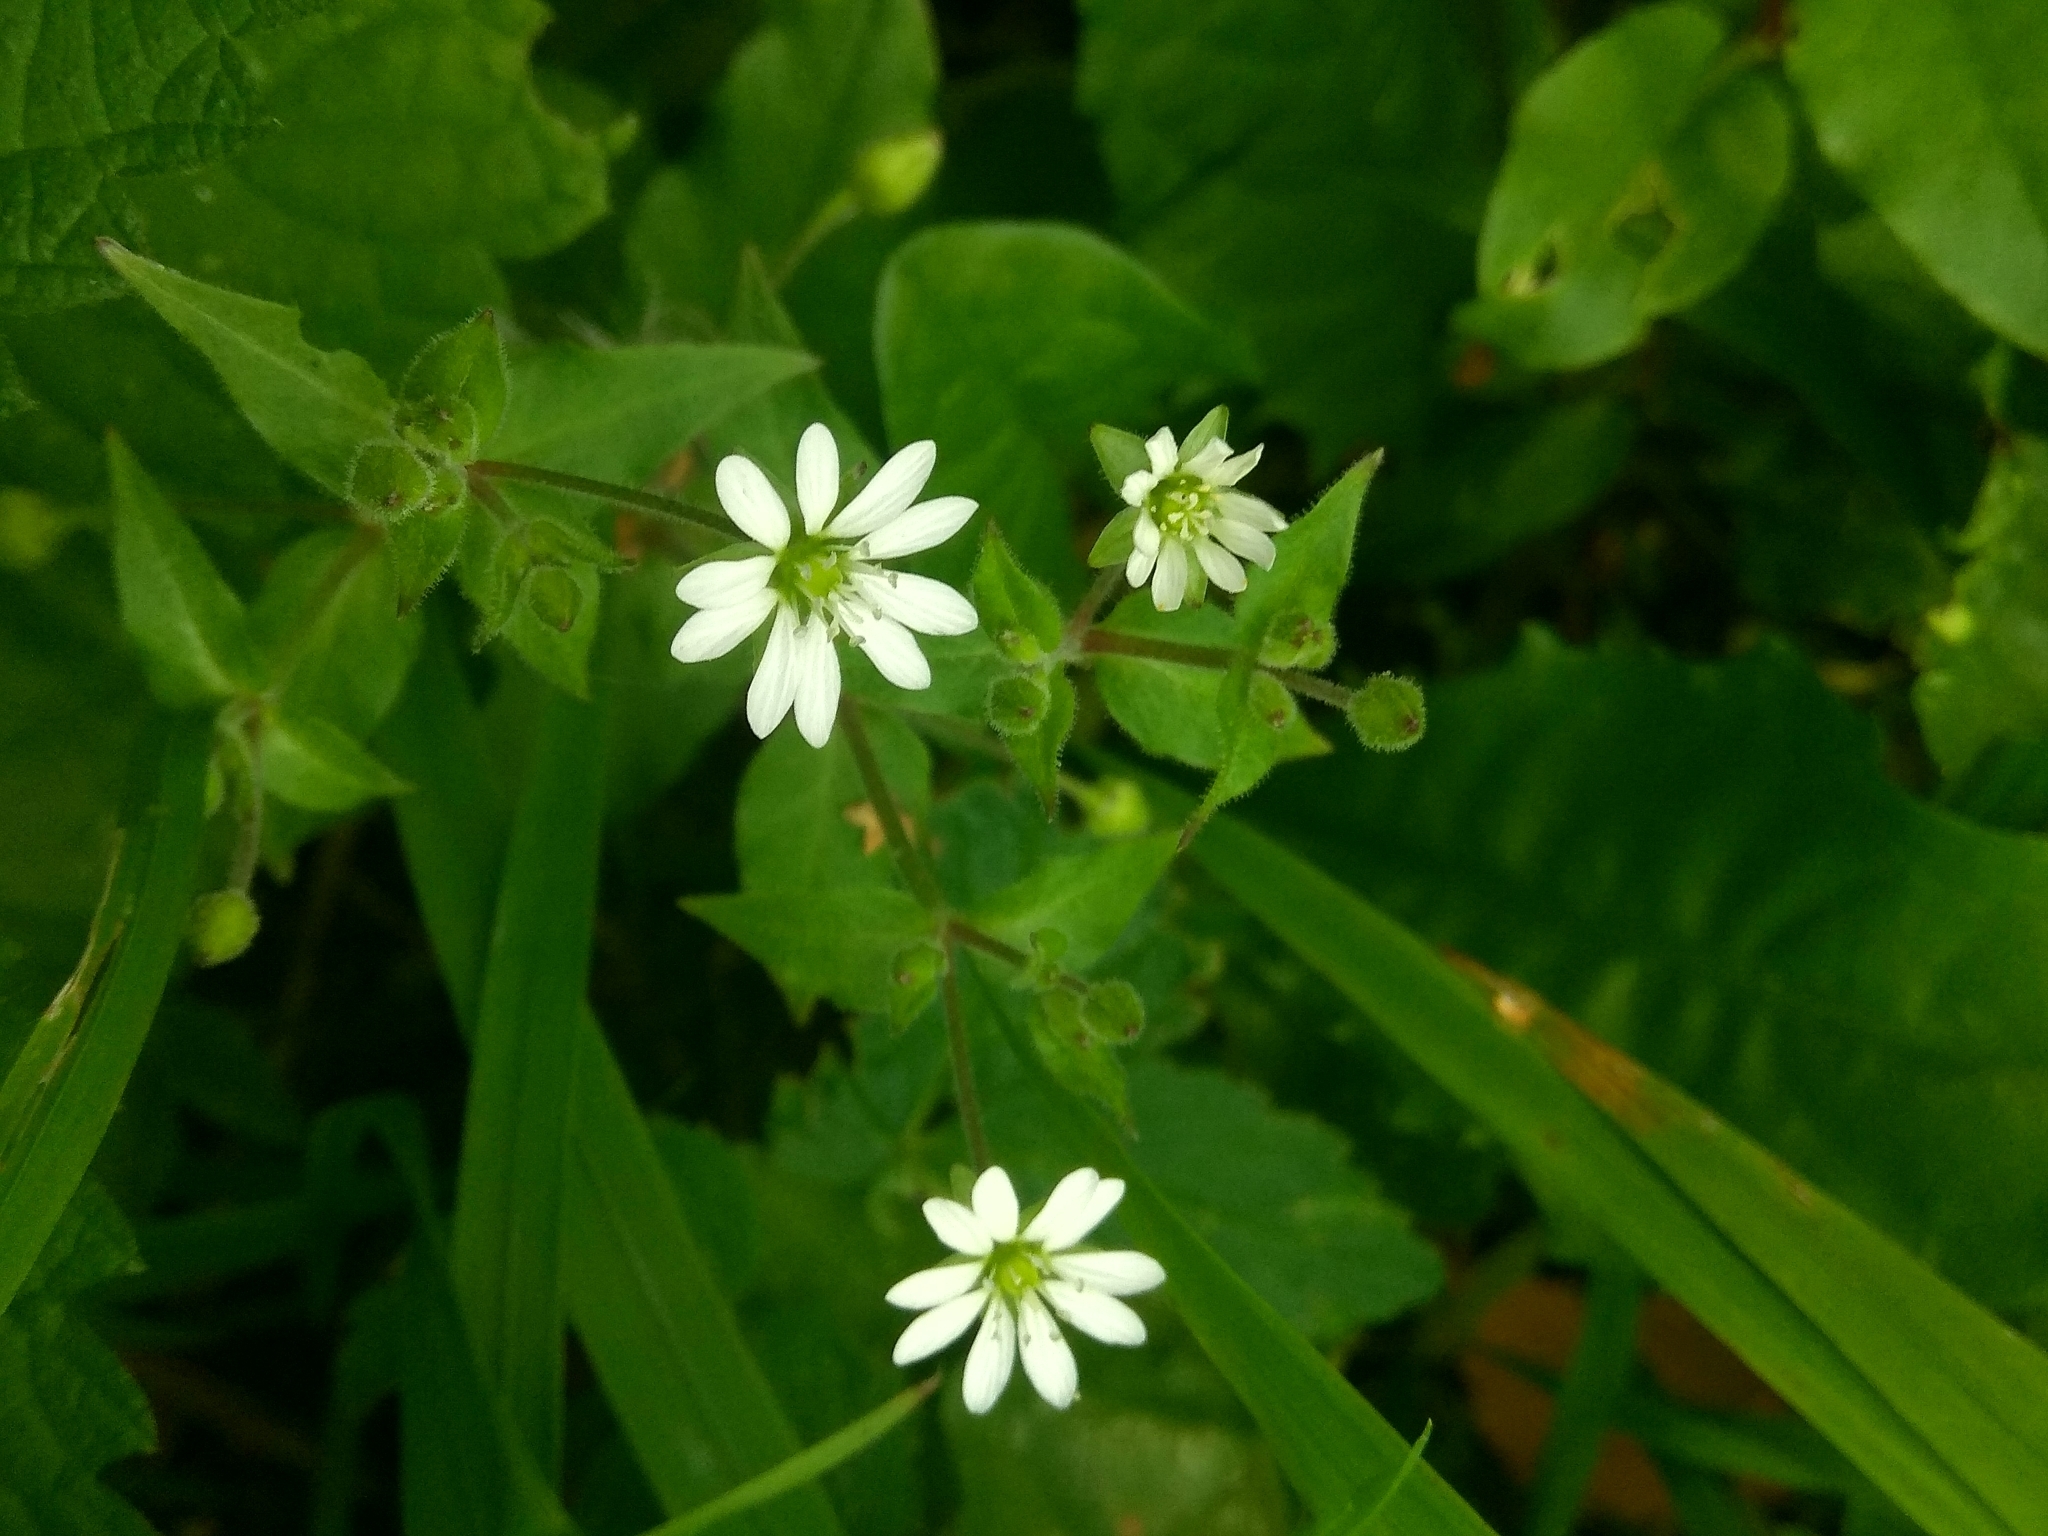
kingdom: Plantae
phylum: Tracheophyta
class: Magnoliopsida
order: Caryophyllales
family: Caryophyllaceae
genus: Stellaria
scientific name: Stellaria aquatica
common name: Water chickweed
